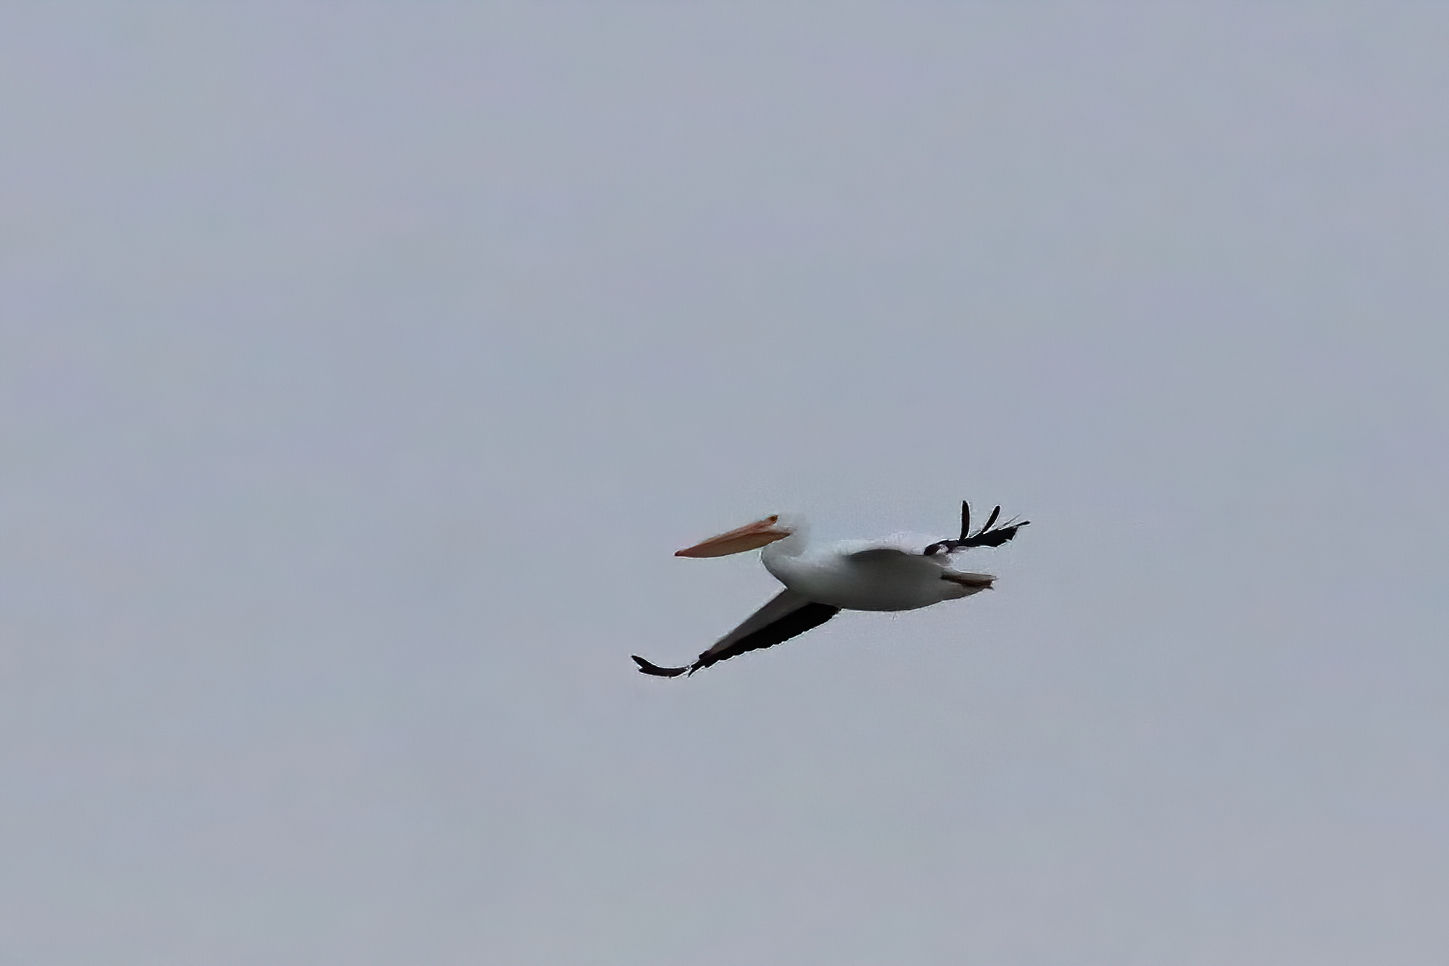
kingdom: Animalia
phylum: Chordata
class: Aves
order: Pelecaniformes
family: Pelecanidae
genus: Pelecanus
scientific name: Pelecanus erythrorhynchos
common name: American white pelican
